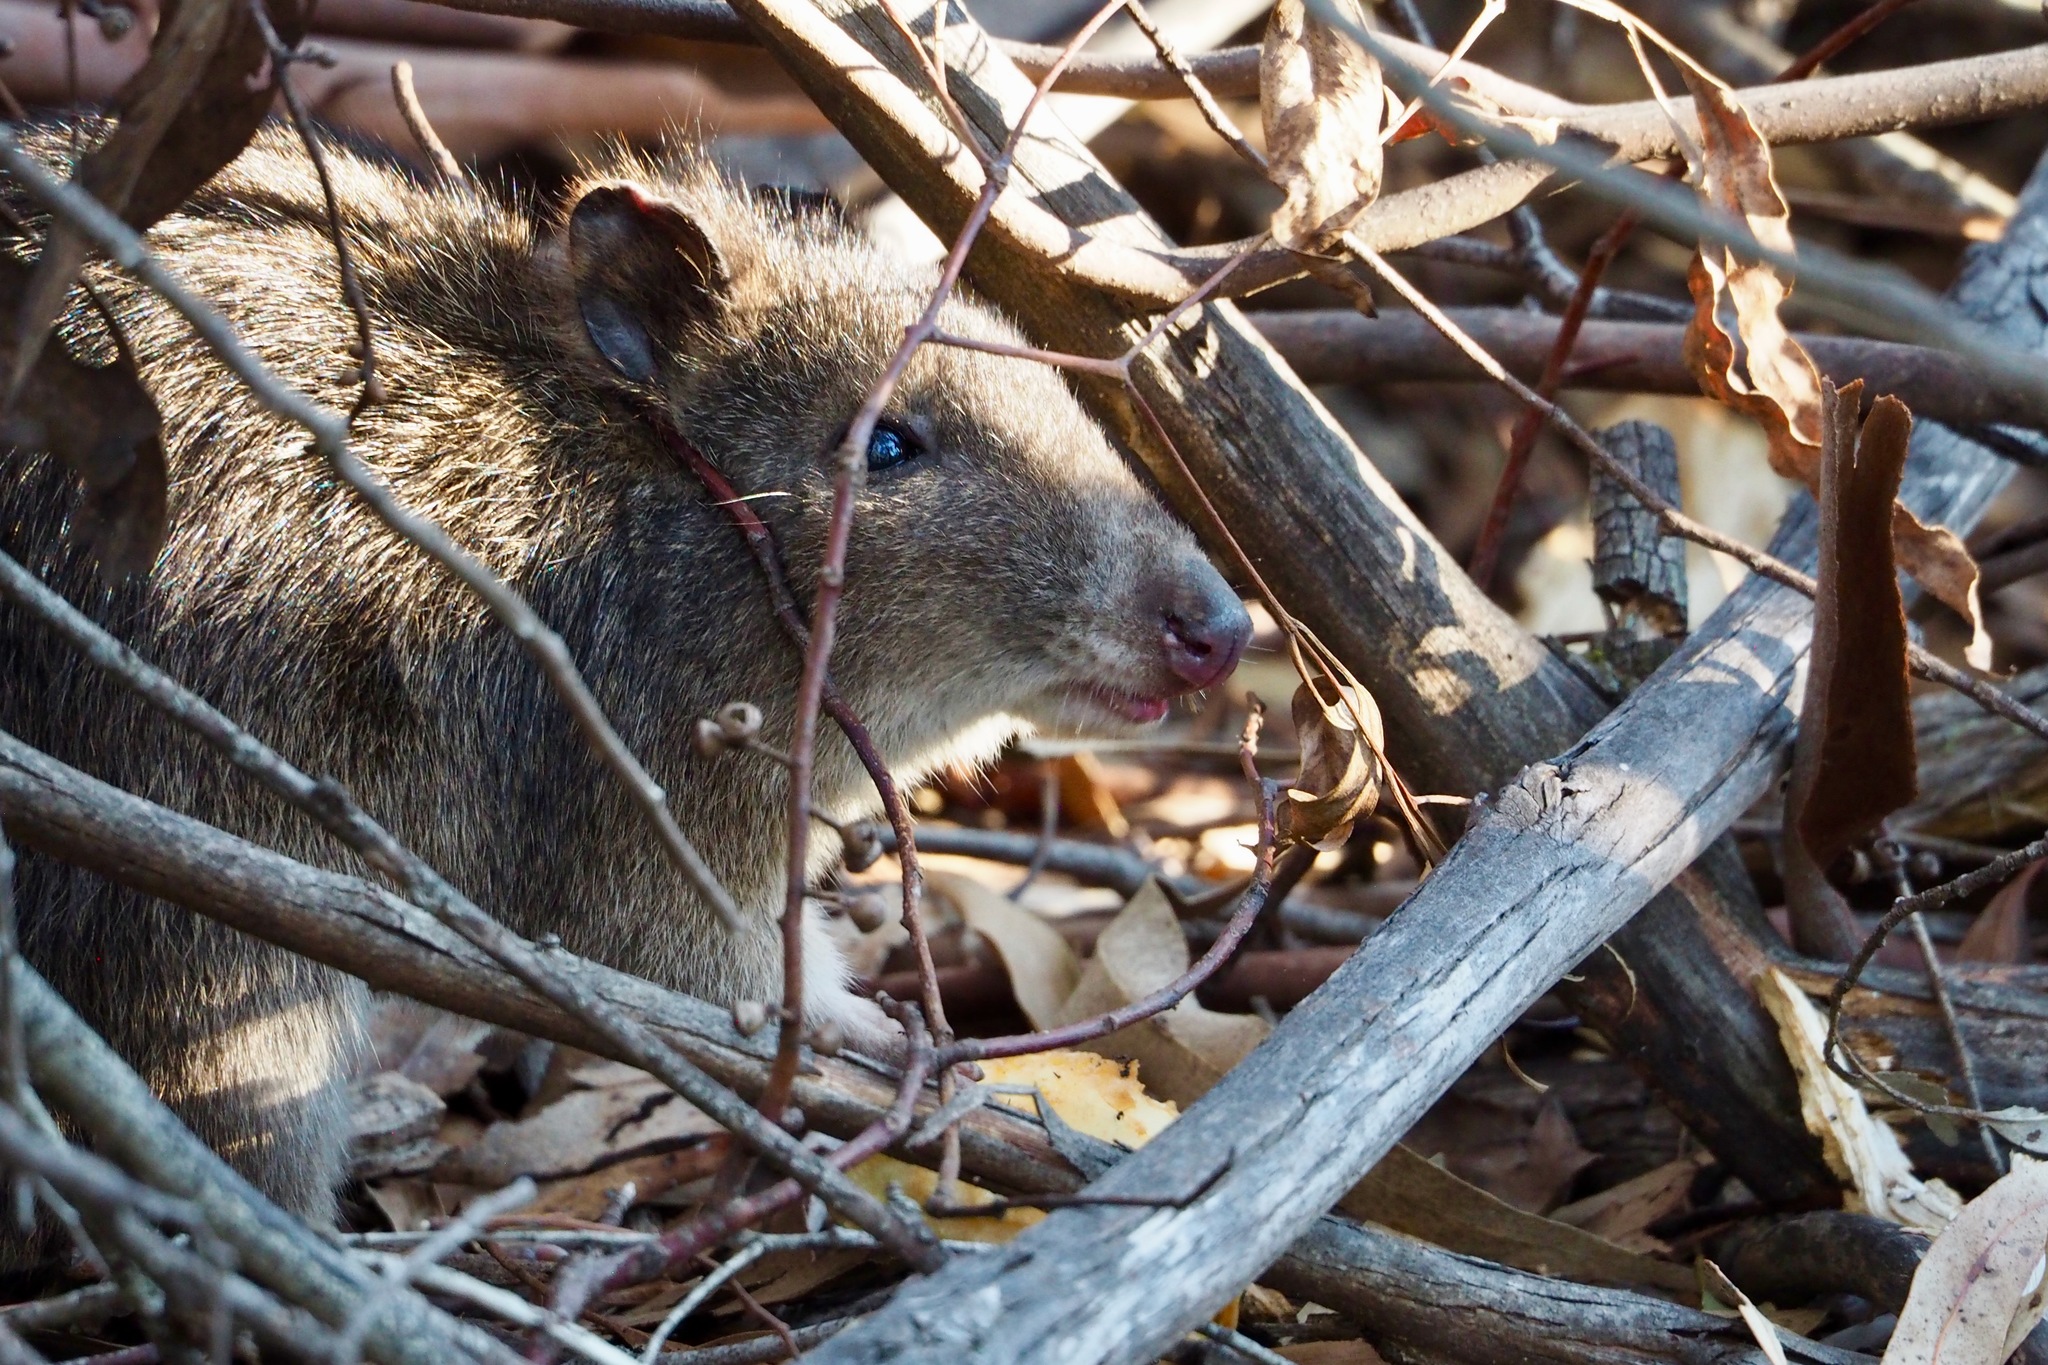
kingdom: Animalia
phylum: Chordata
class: Mammalia
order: Diprotodontia
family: Potoroidae
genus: Potorous
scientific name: Potorous tridactylus
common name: Long-nosed potoroo
